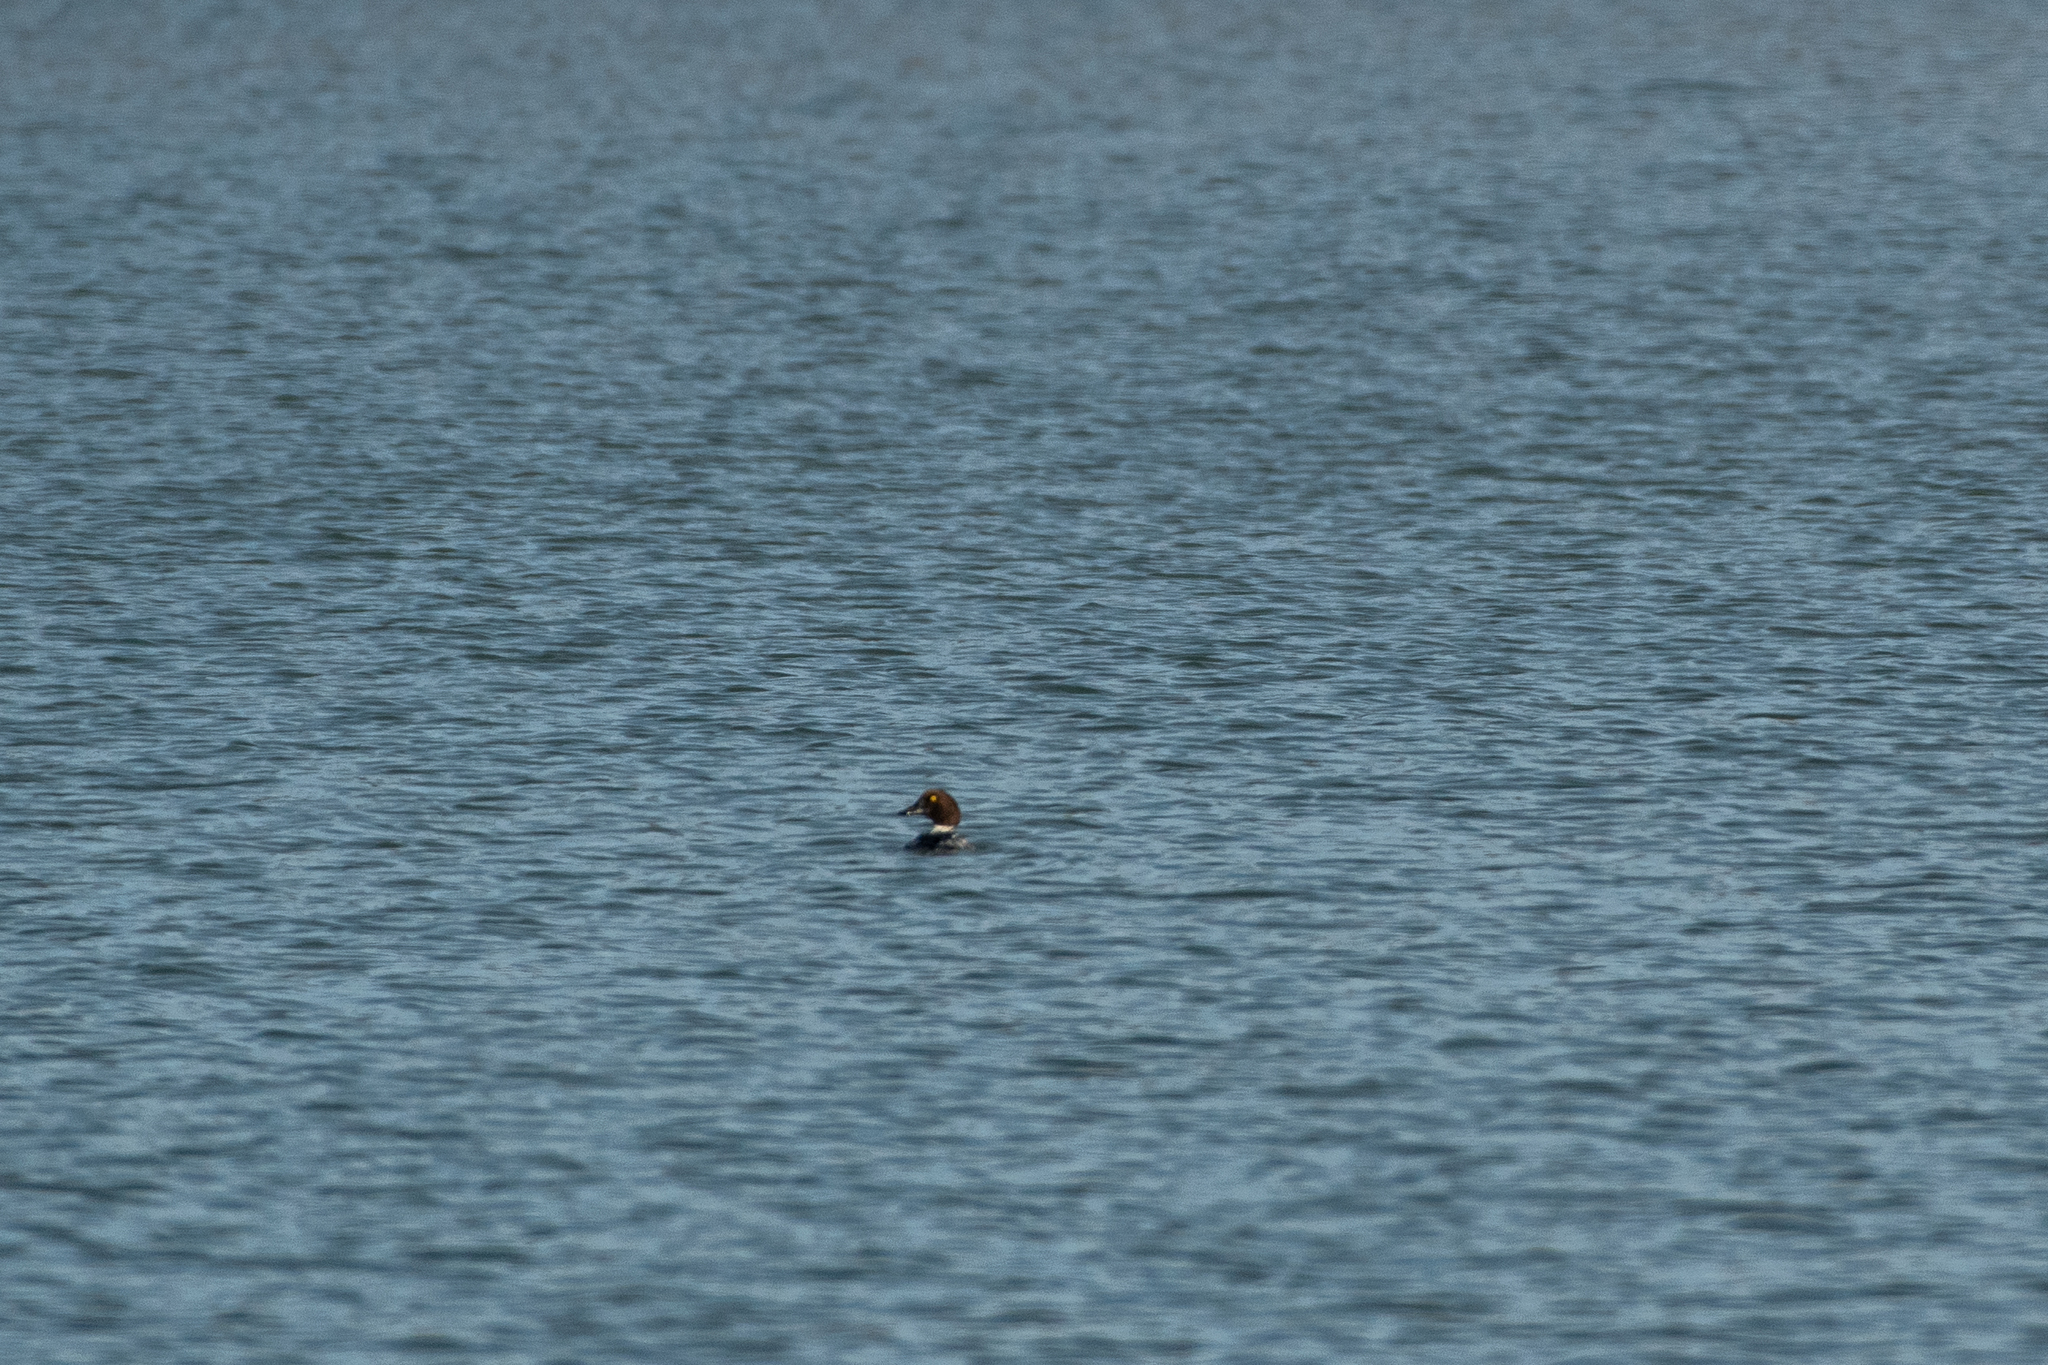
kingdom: Animalia
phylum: Chordata
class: Aves
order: Anseriformes
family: Anatidae
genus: Bucephala
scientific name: Bucephala clangula
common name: Common goldeneye
